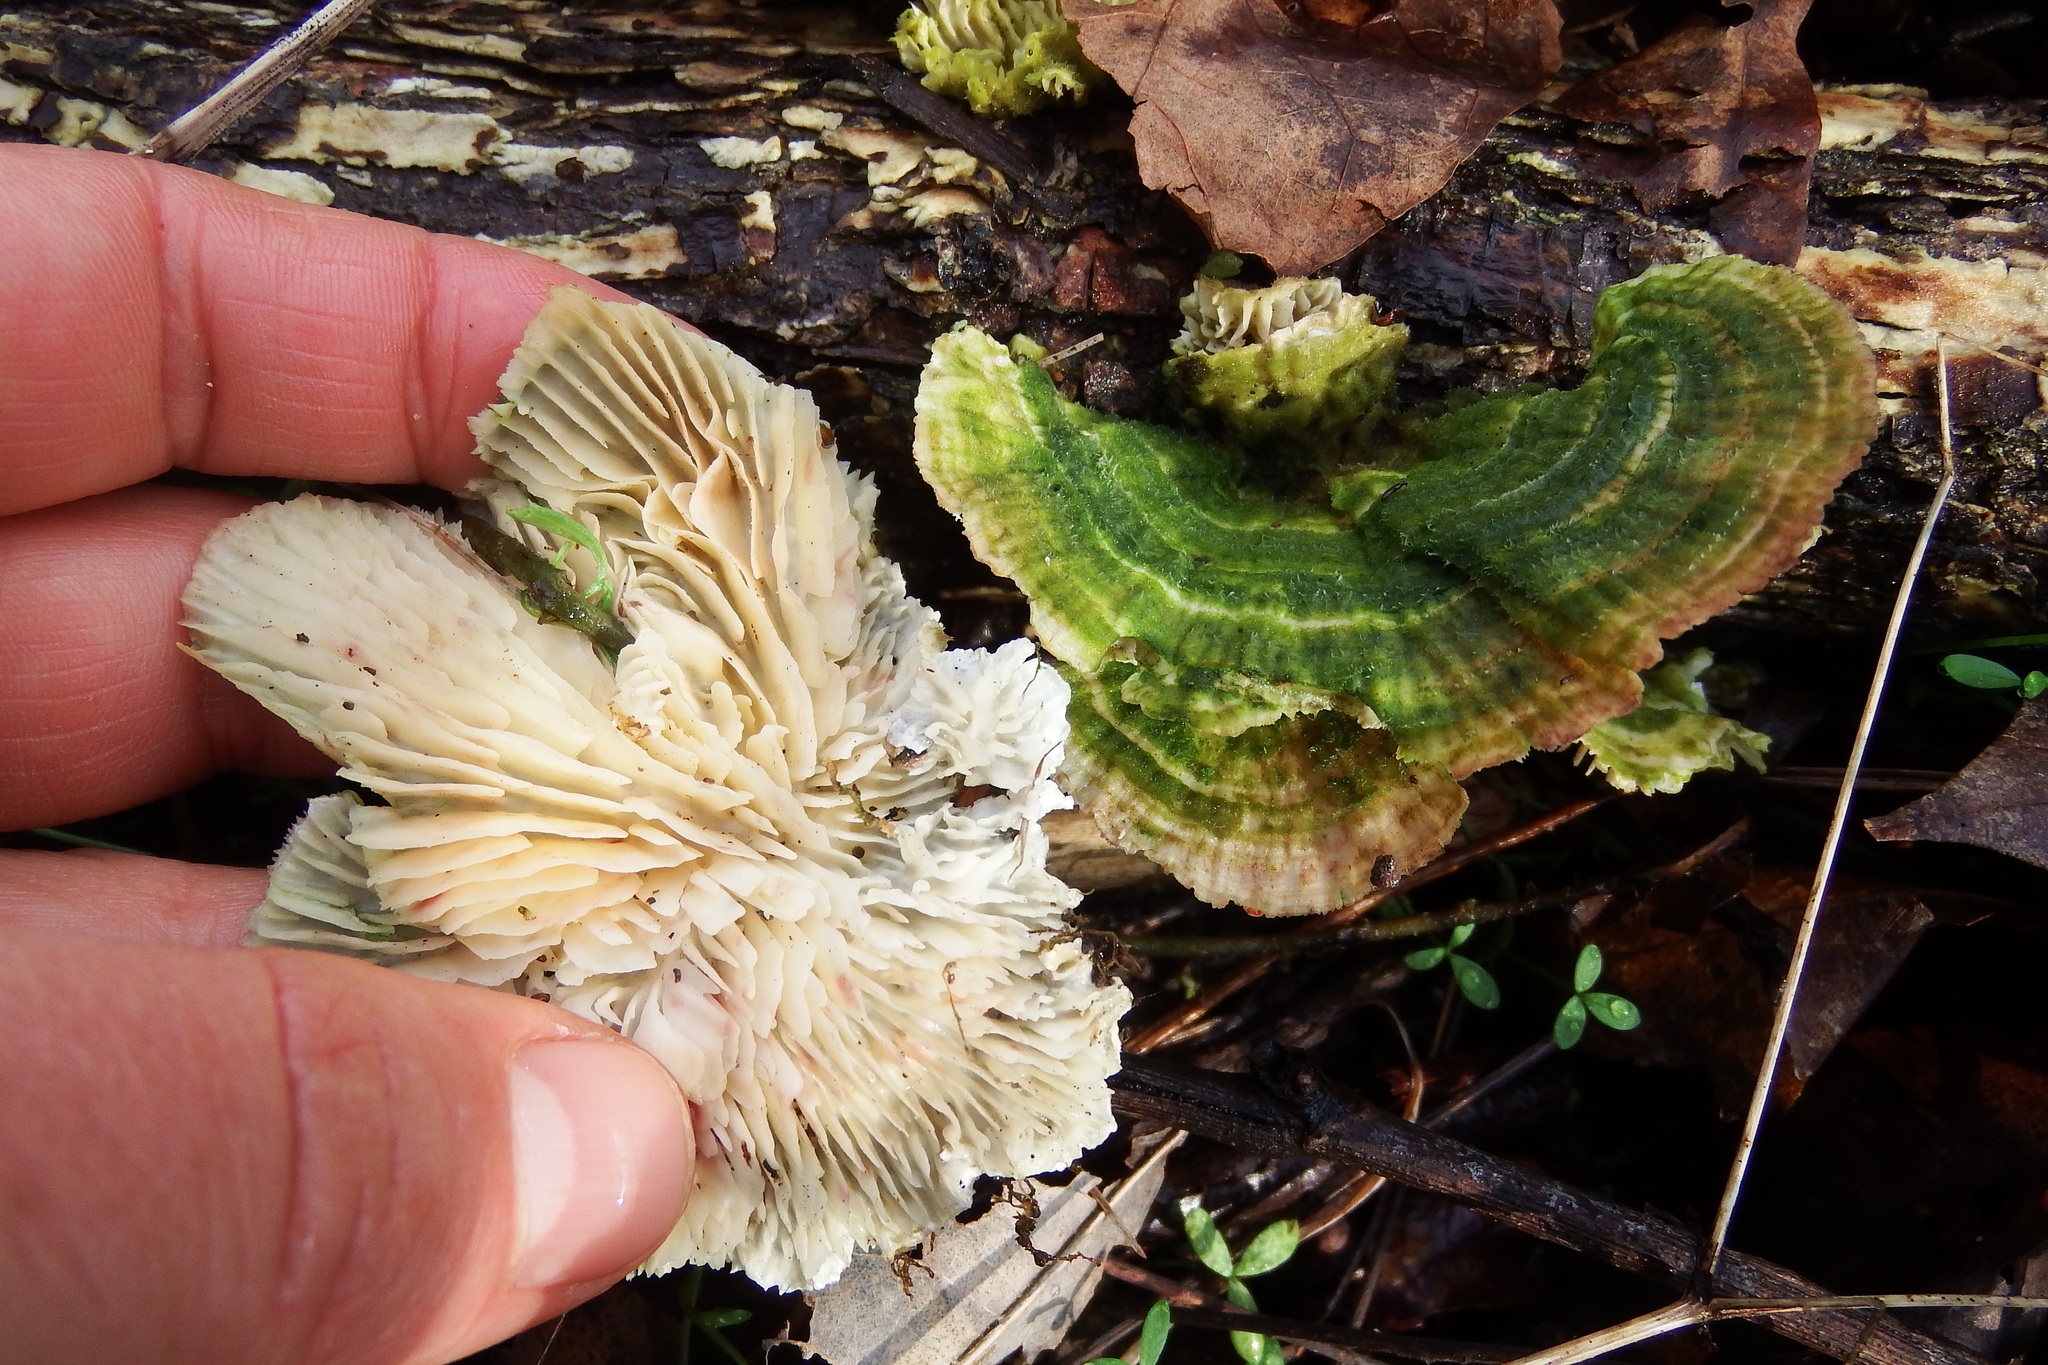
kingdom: Fungi
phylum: Basidiomycota
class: Agaricomycetes
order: Polyporales
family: Polyporaceae
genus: Lenzites
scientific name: Lenzites betulinus
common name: Birch mazegill
